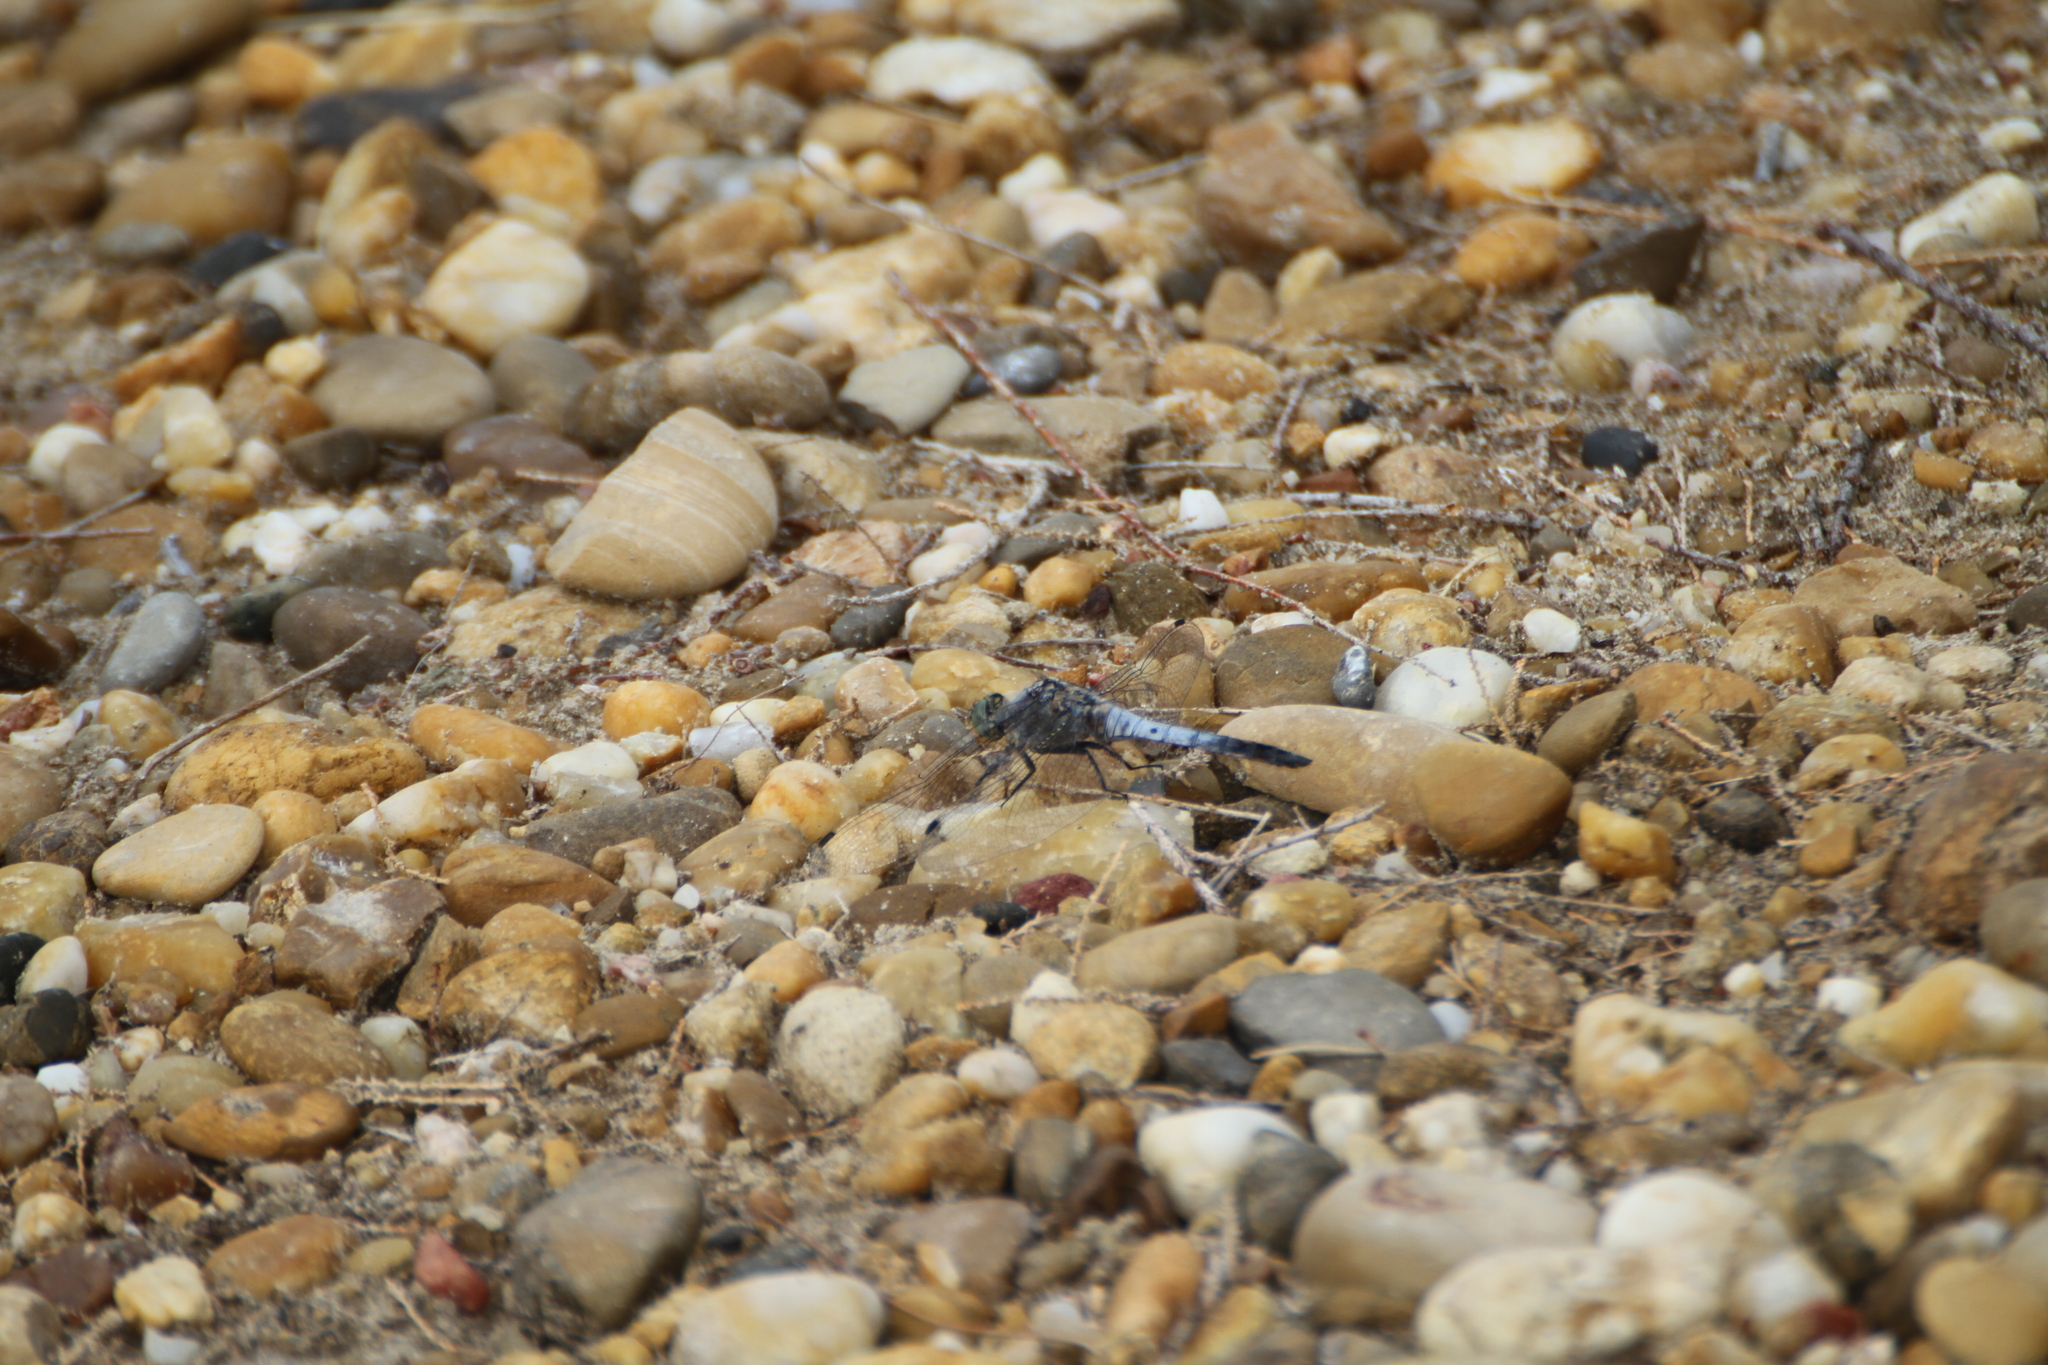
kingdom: Animalia
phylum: Arthropoda
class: Insecta
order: Odonata
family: Libellulidae
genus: Orthetrum
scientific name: Orthetrum cancellatum
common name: Black-tailed skimmer
